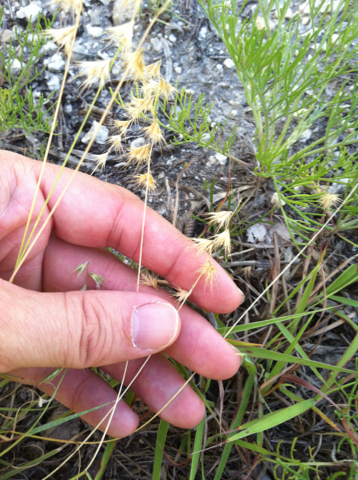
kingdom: Plantae
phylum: Tracheophyta
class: Liliopsida
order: Poales
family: Poaceae
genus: Bouteloua
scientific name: Bouteloua rigidiseta
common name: Texas grama
